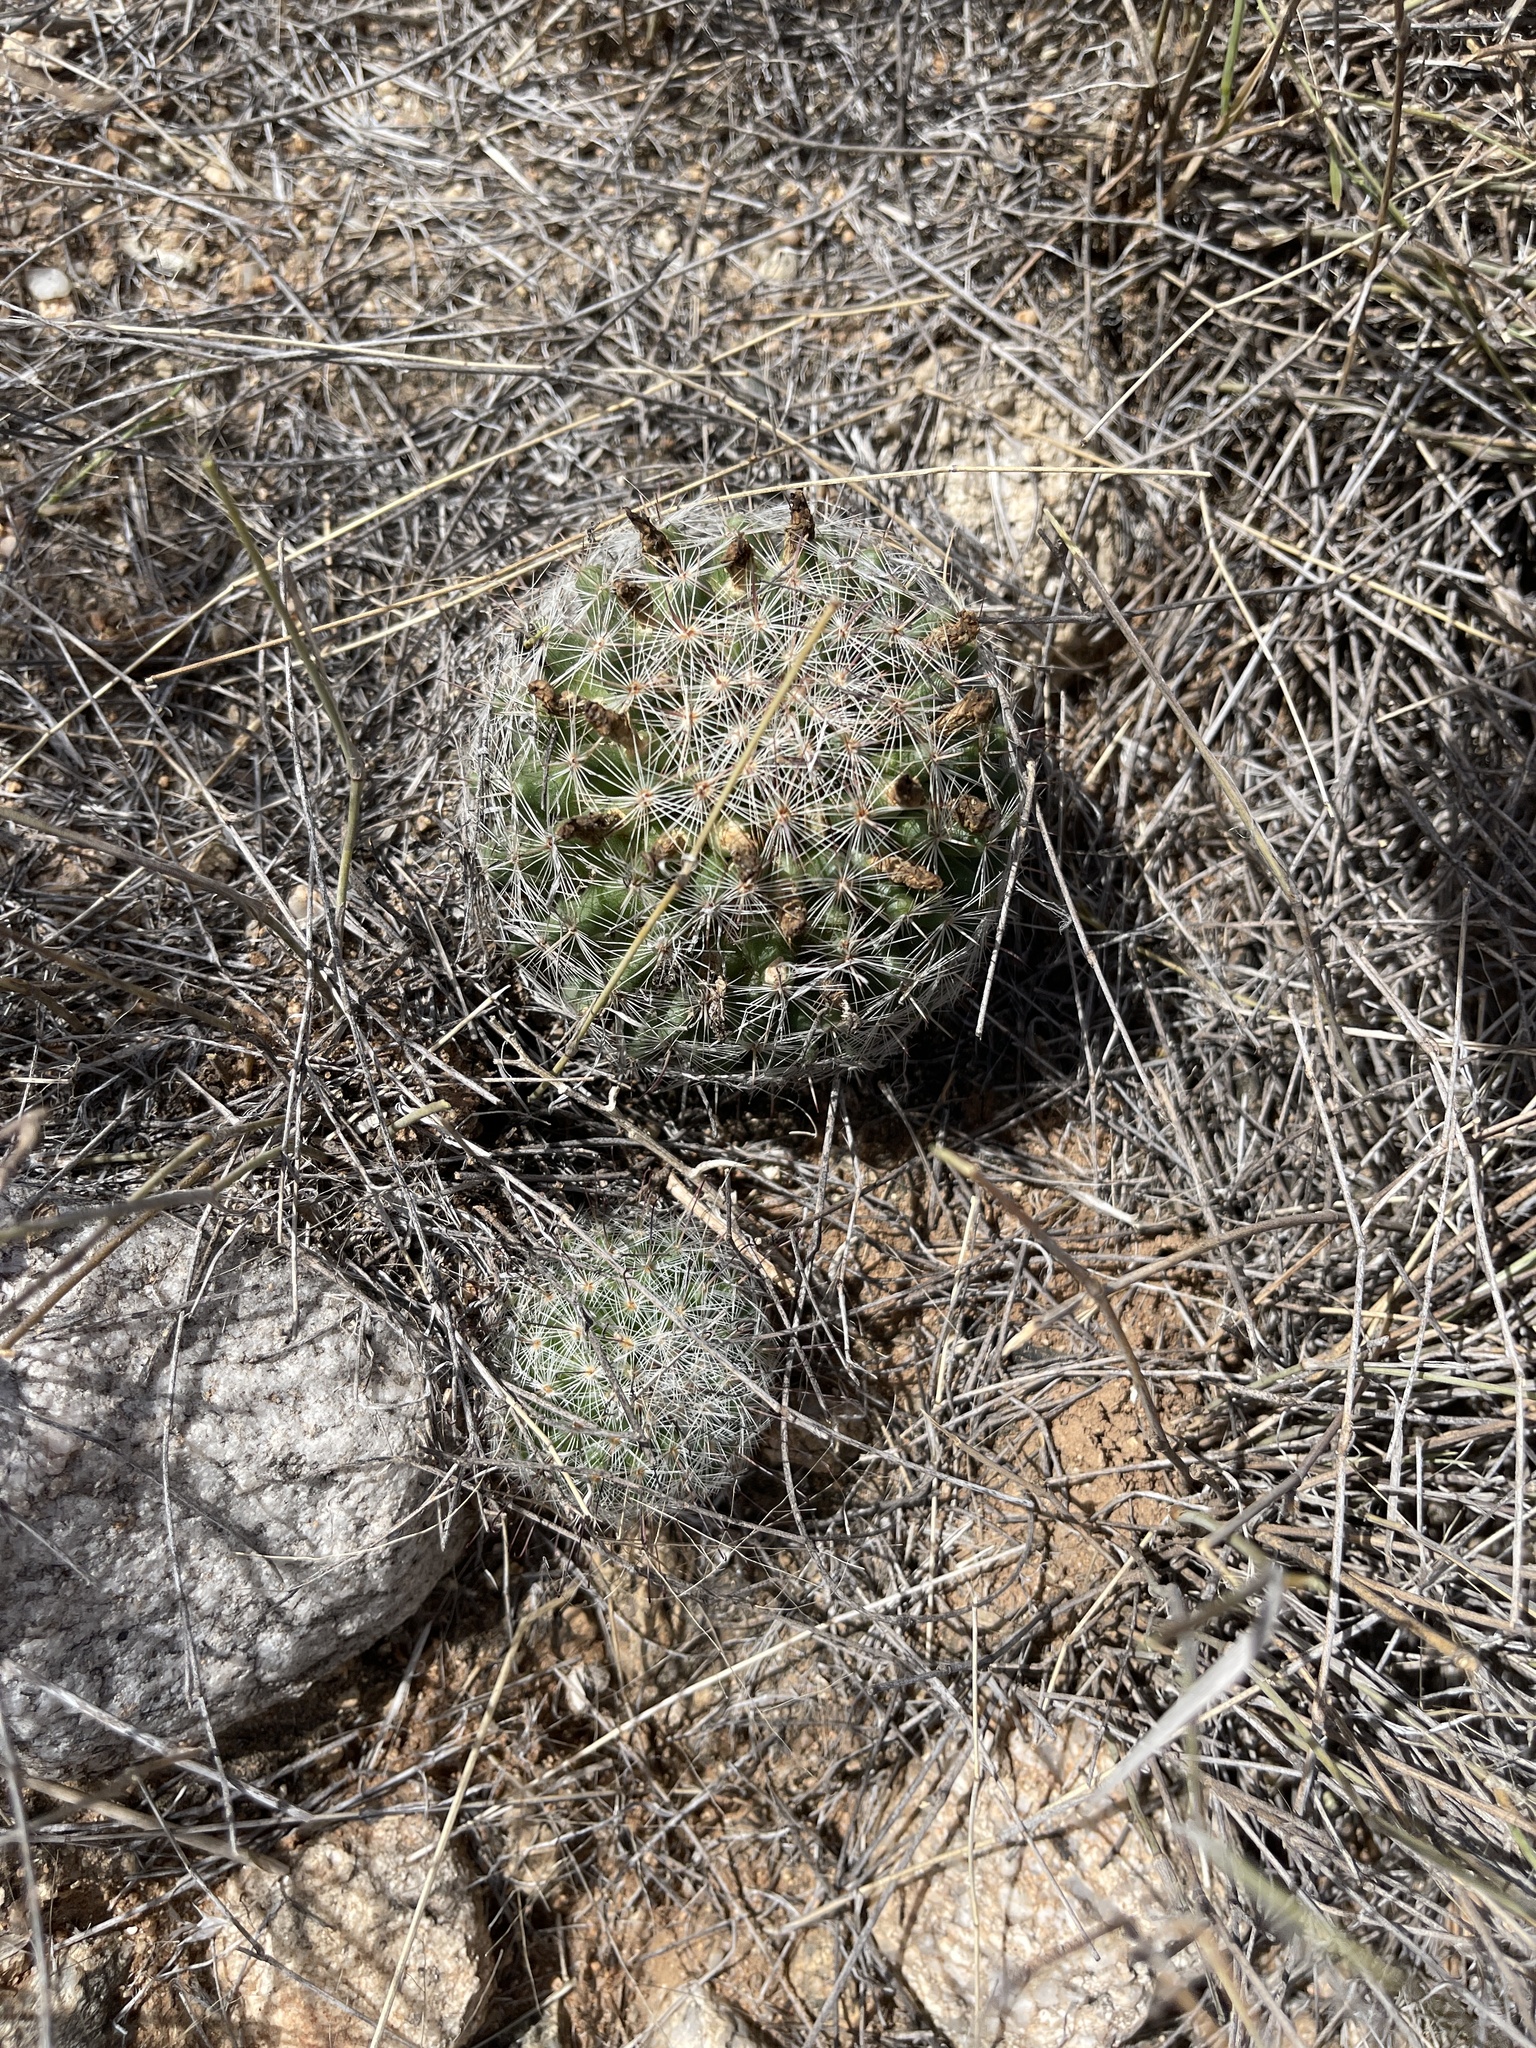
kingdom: Plantae
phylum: Tracheophyta
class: Magnoliopsida
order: Caryophyllales
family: Cactaceae
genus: Cochemiea
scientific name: Cochemiea grahamii
